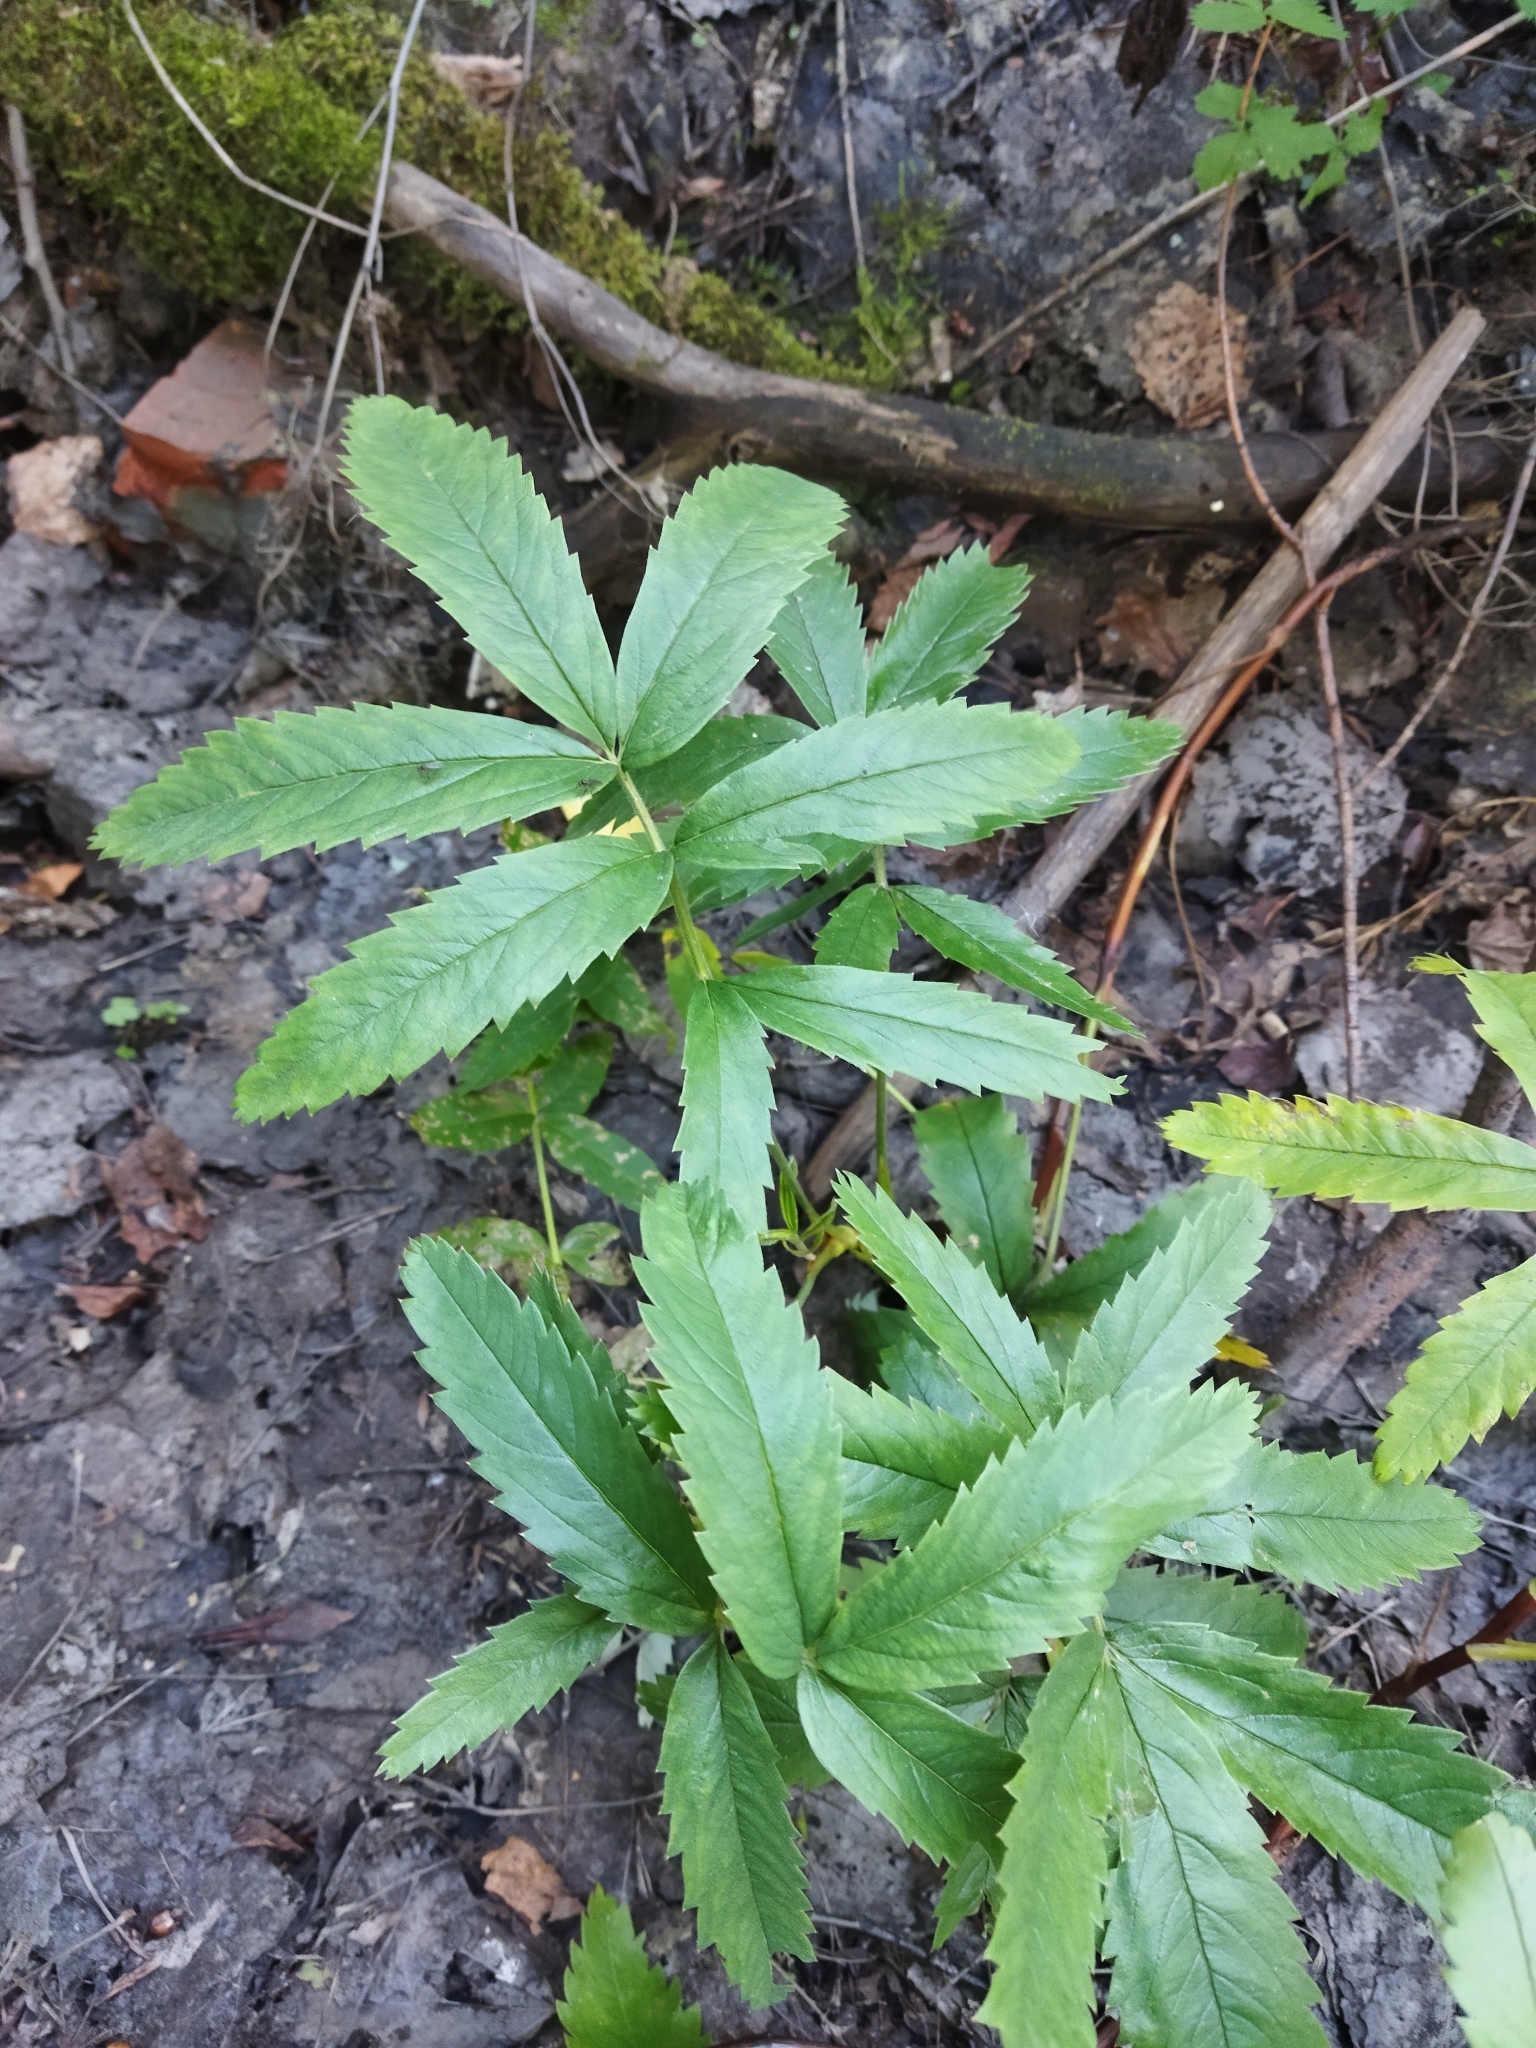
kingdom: Plantae
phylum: Tracheophyta
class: Magnoliopsida
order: Rosales
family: Rosaceae
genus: Comarum
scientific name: Comarum palustre
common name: Marsh cinquefoil
